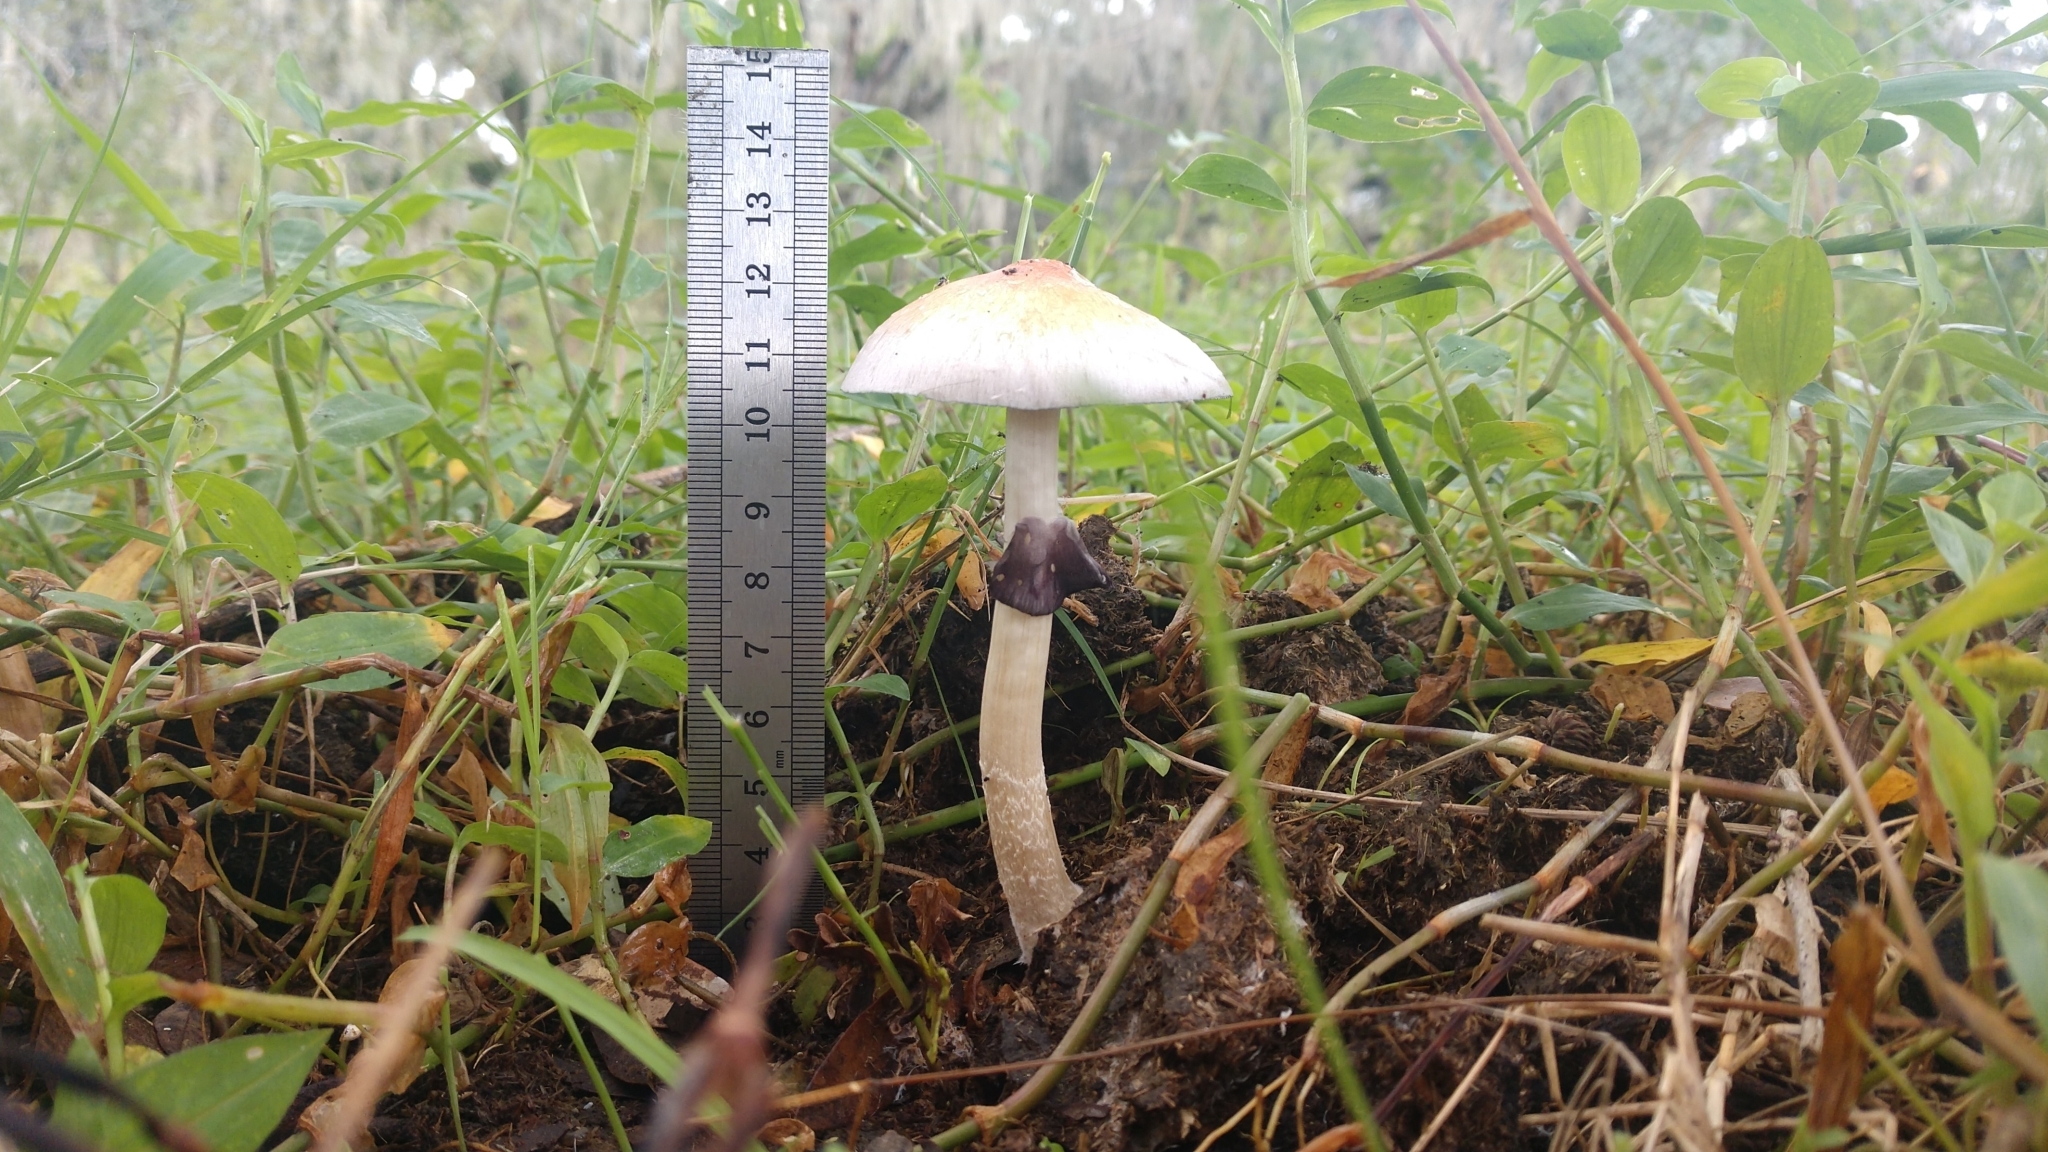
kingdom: Fungi
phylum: Basidiomycota
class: Agaricomycetes
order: Agaricales
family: Hymenogastraceae
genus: Psilocybe
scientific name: Psilocybe cubensis
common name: Golden brownie
